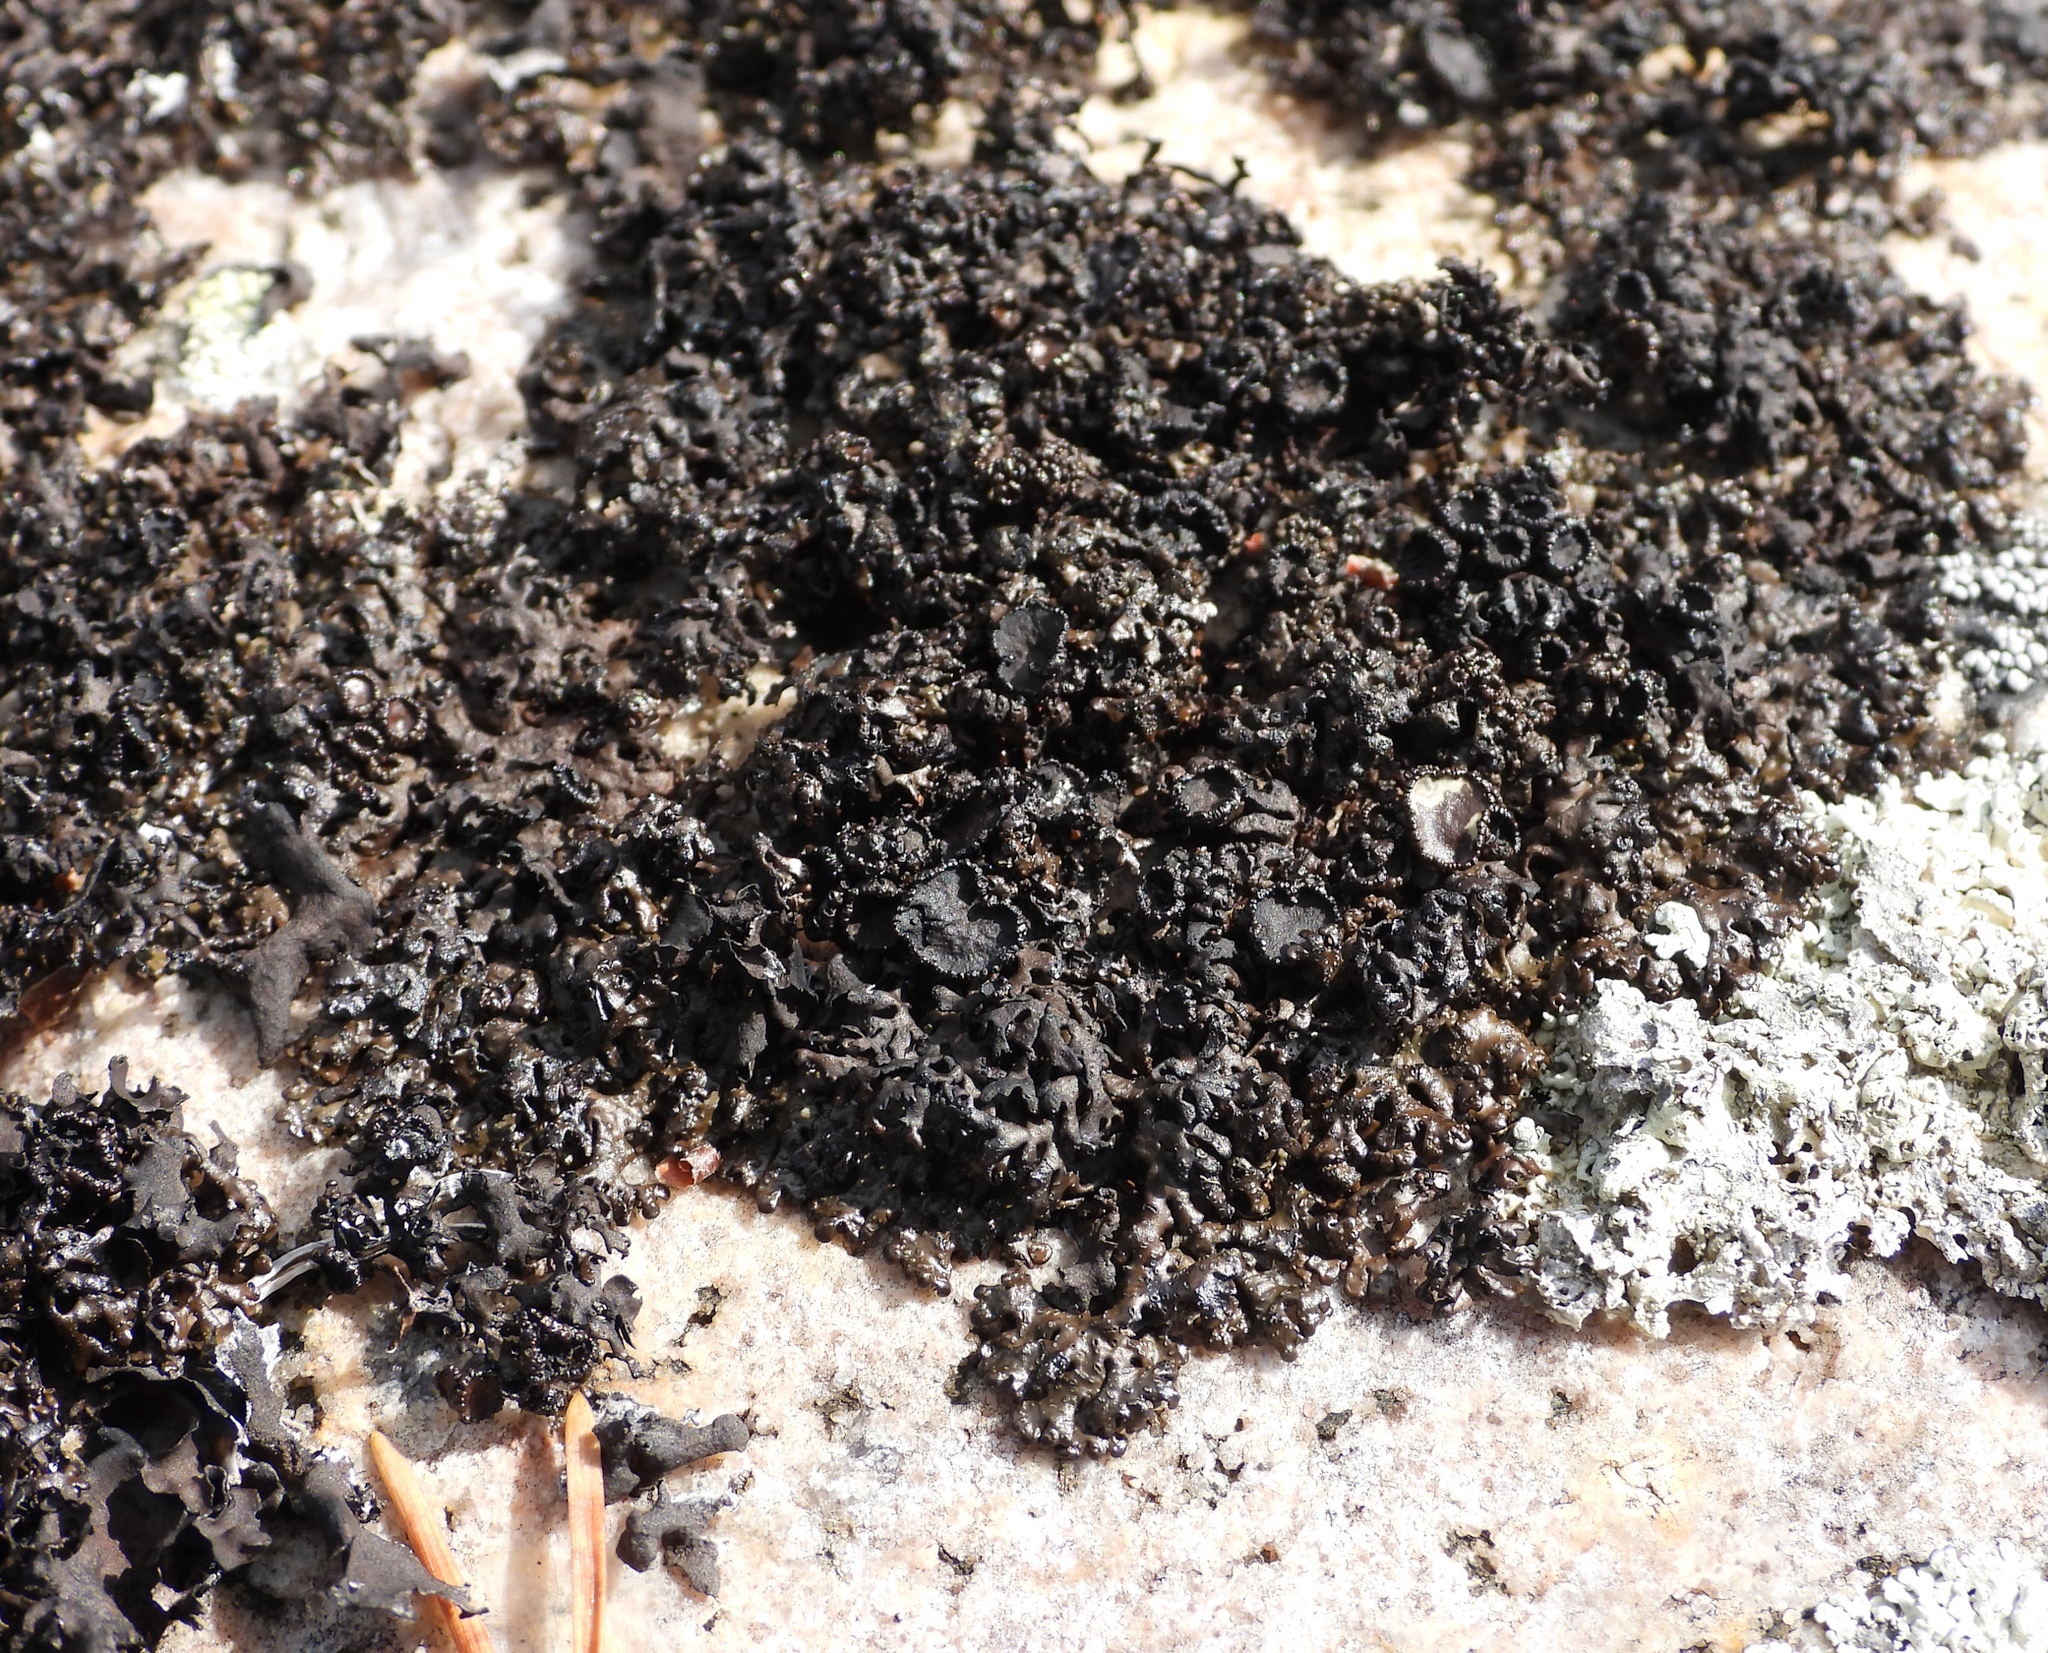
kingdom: Fungi
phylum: Ascomycota
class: Lecanoromycetes
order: Lecanorales
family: Parmeliaceae
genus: Melanelia
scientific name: Melanelia stygia
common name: Alpine camouflage lichen
